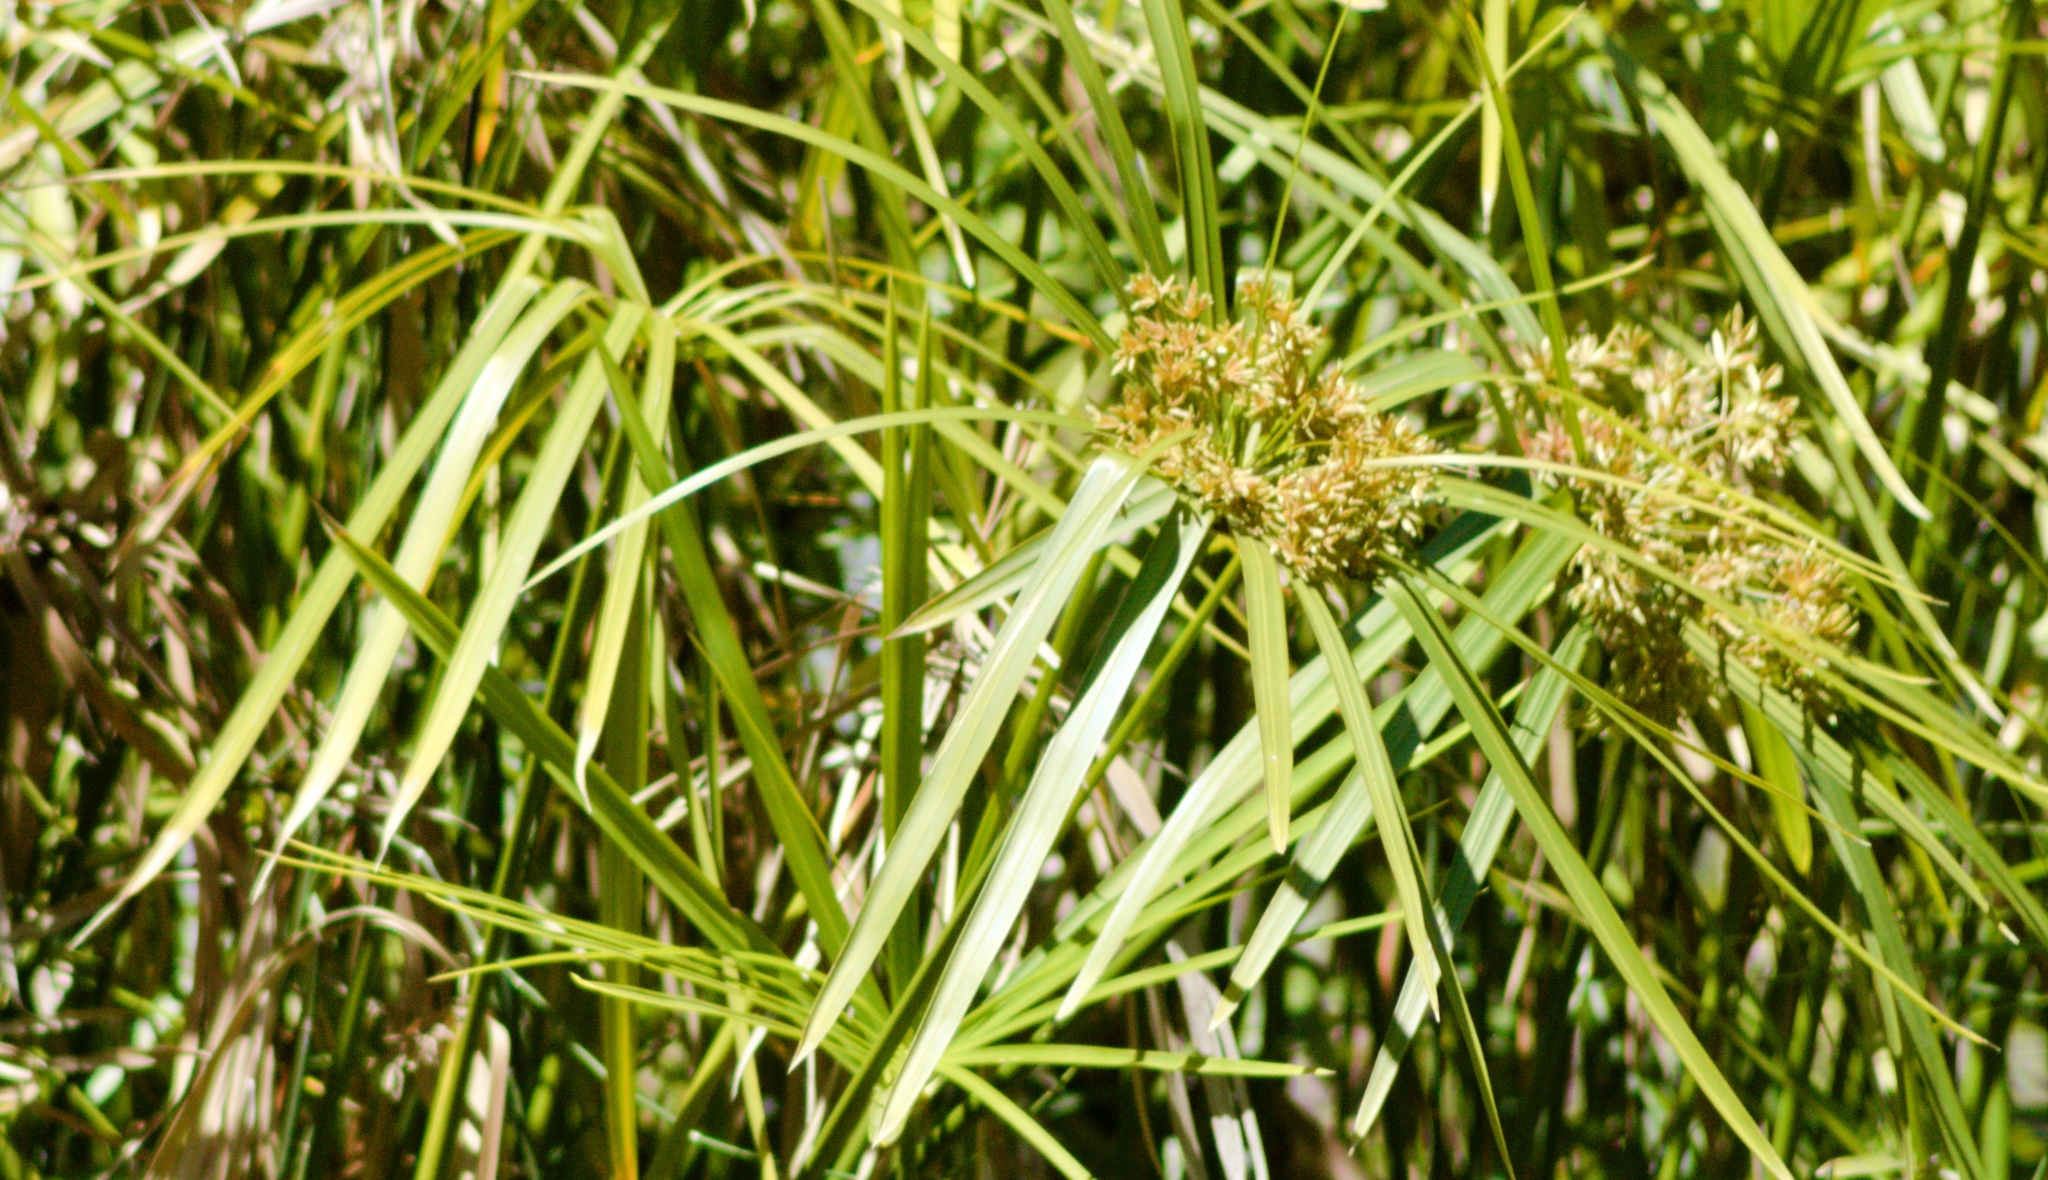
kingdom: Plantae
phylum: Tracheophyta
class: Liliopsida
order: Poales
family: Cyperaceae
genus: Cyperus
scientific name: Cyperus alternifolius
